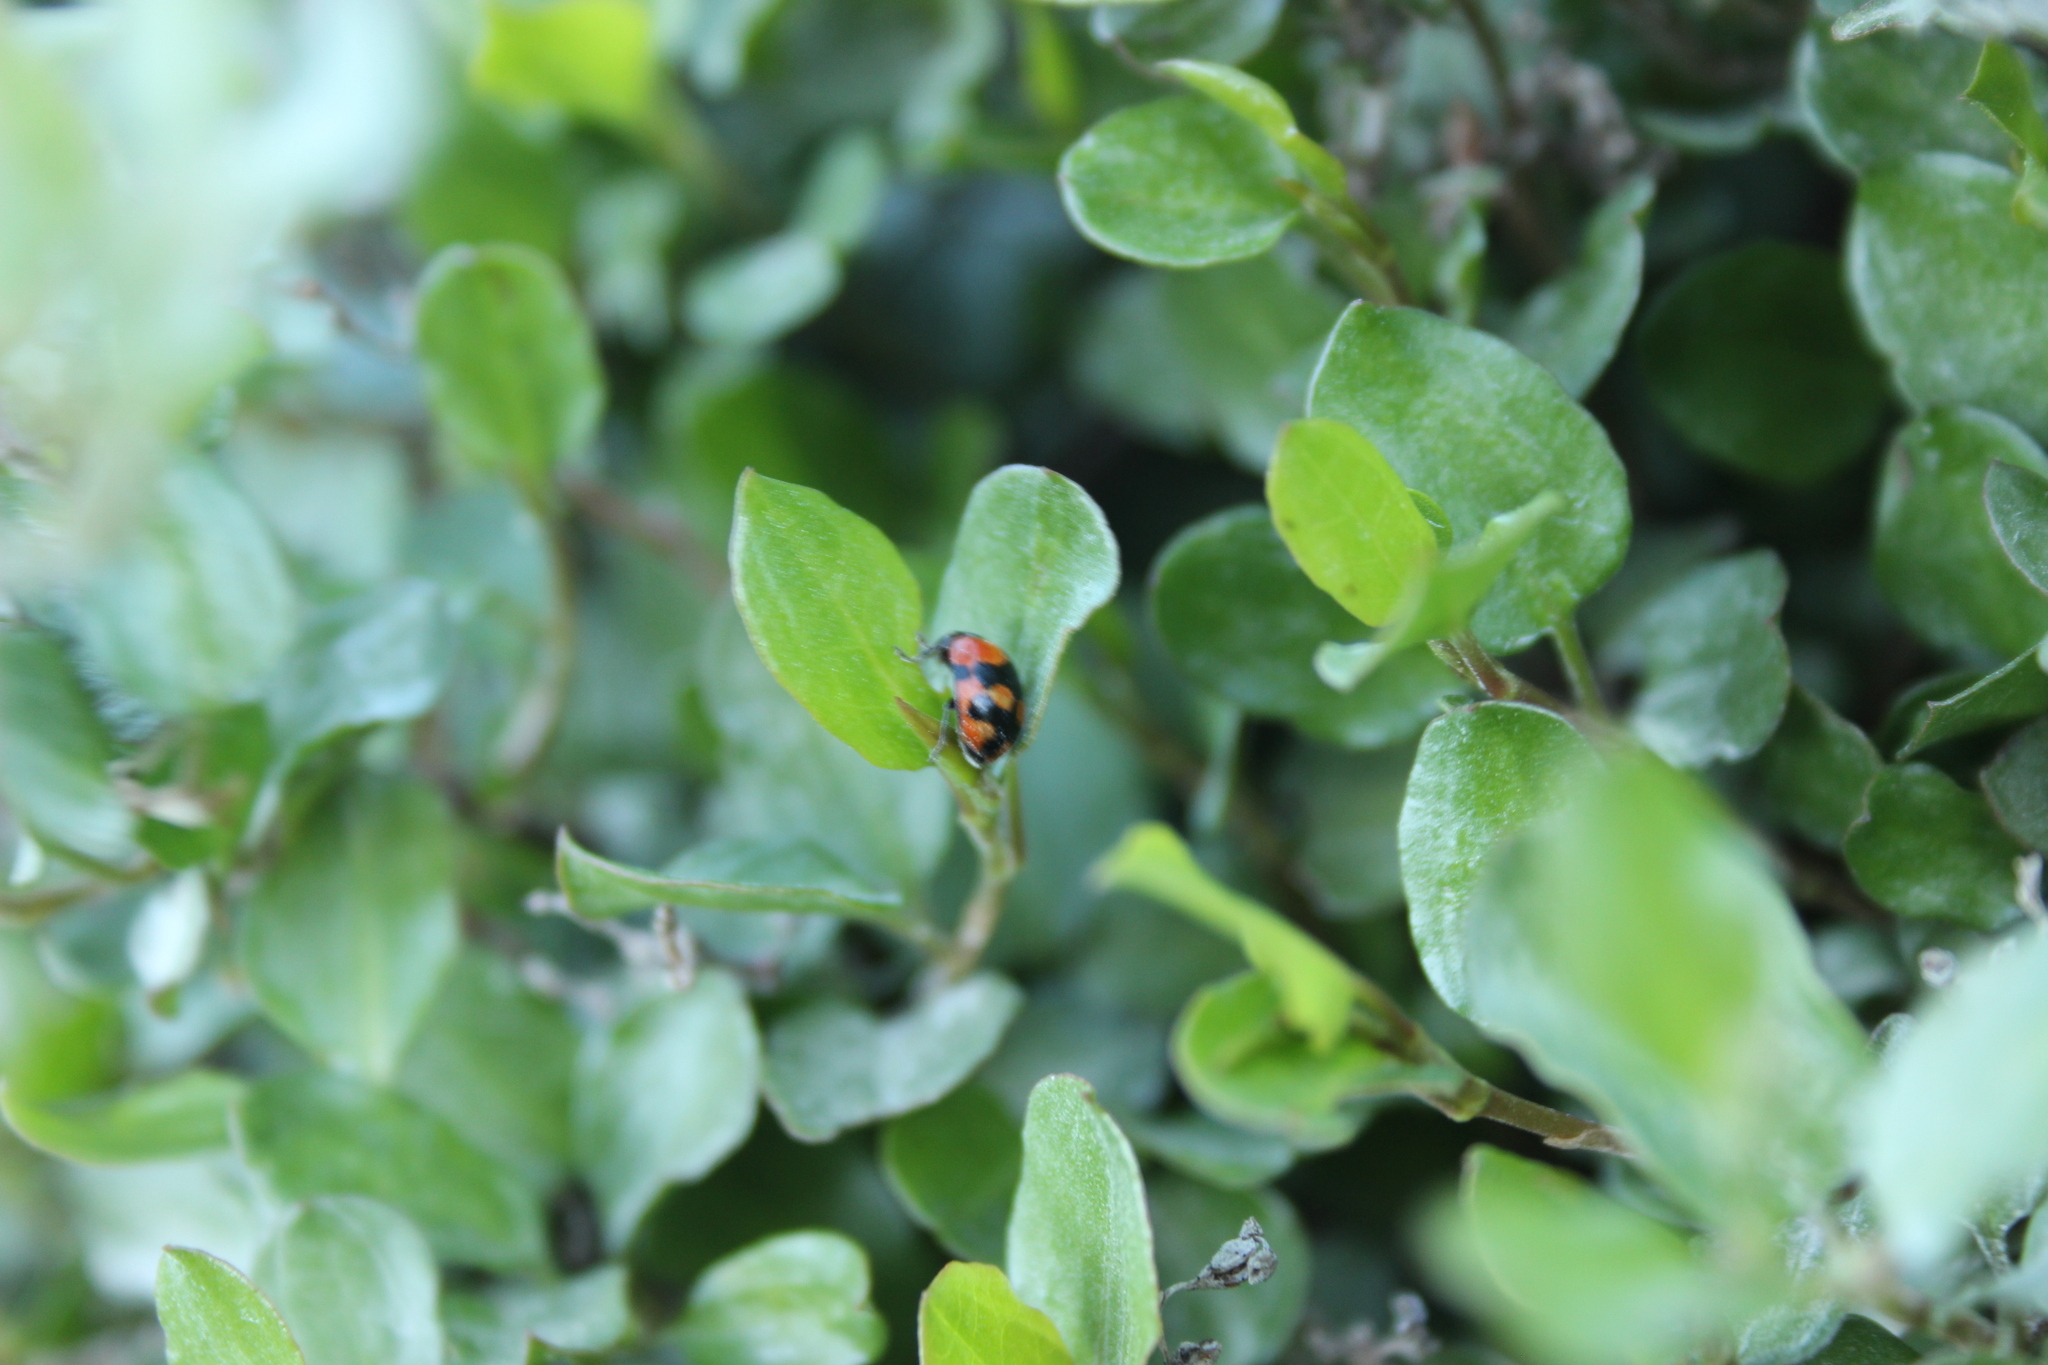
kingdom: Animalia
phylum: Arthropoda
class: Insecta
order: Coleoptera
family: Coccinellidae
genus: Adalia
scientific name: Adalia bipunctata
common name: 2-spot ladybird
